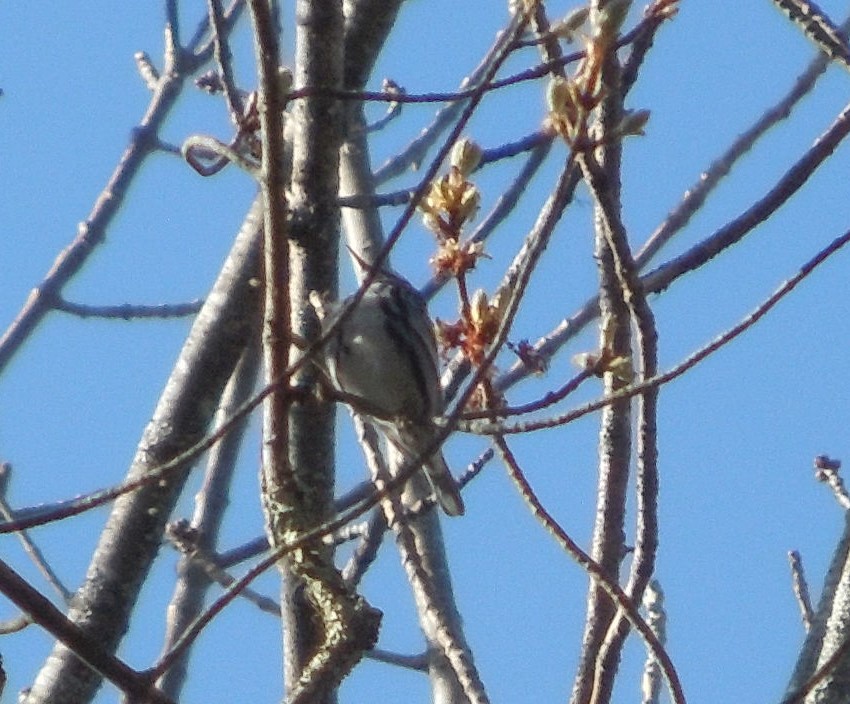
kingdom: Animalia
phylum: Chordata
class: Aves
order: Passeriformes
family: Parulidae
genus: Mniotilta
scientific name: Mniotilta varia
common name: Black-and-white warbler
